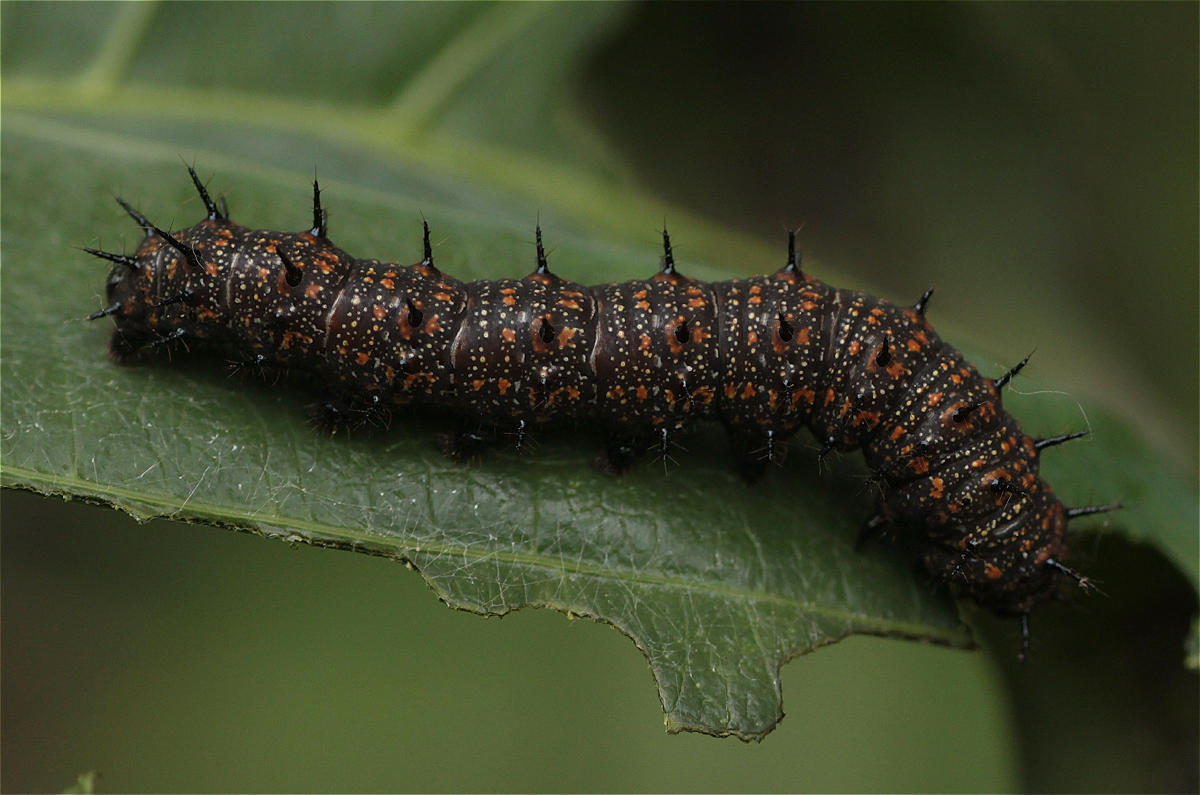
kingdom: Animalia
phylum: Arthropoda
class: Insecta
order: Lepidoptera
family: Nymphalidae
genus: Dione
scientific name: Dione juno
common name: Juno silverspot
